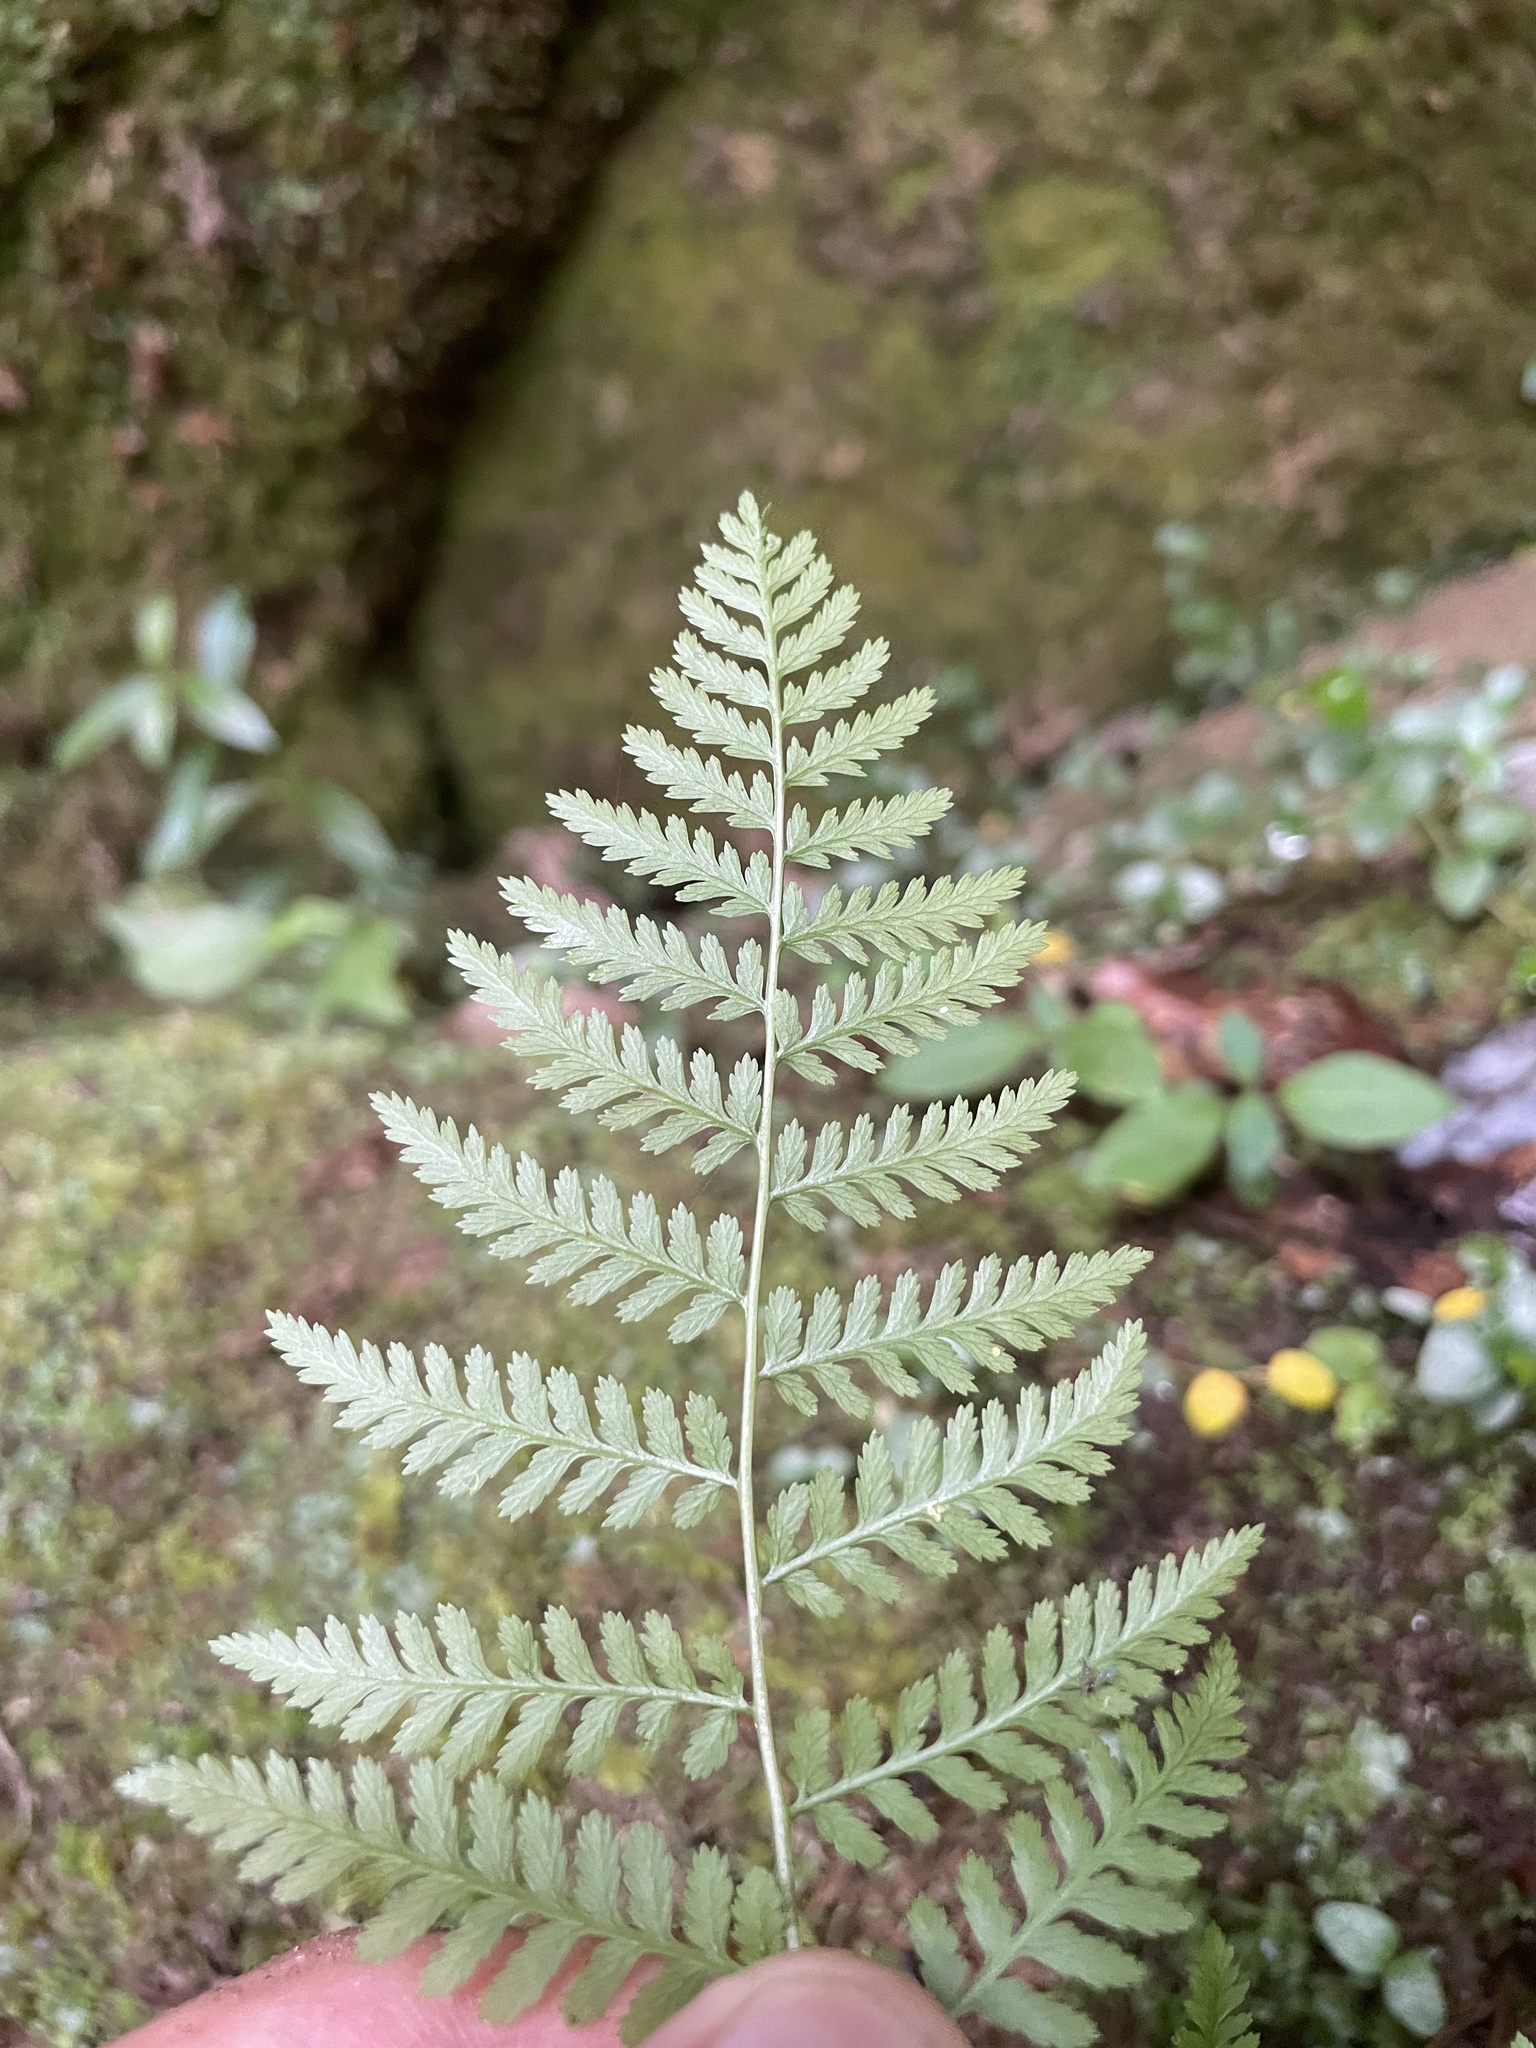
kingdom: Plantae
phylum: Tracheophyta
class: Polypodiopsida
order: Polypodiales
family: Athyriaceae
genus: Athyrium
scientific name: Athyrium asplenioides
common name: Southern lady fern
